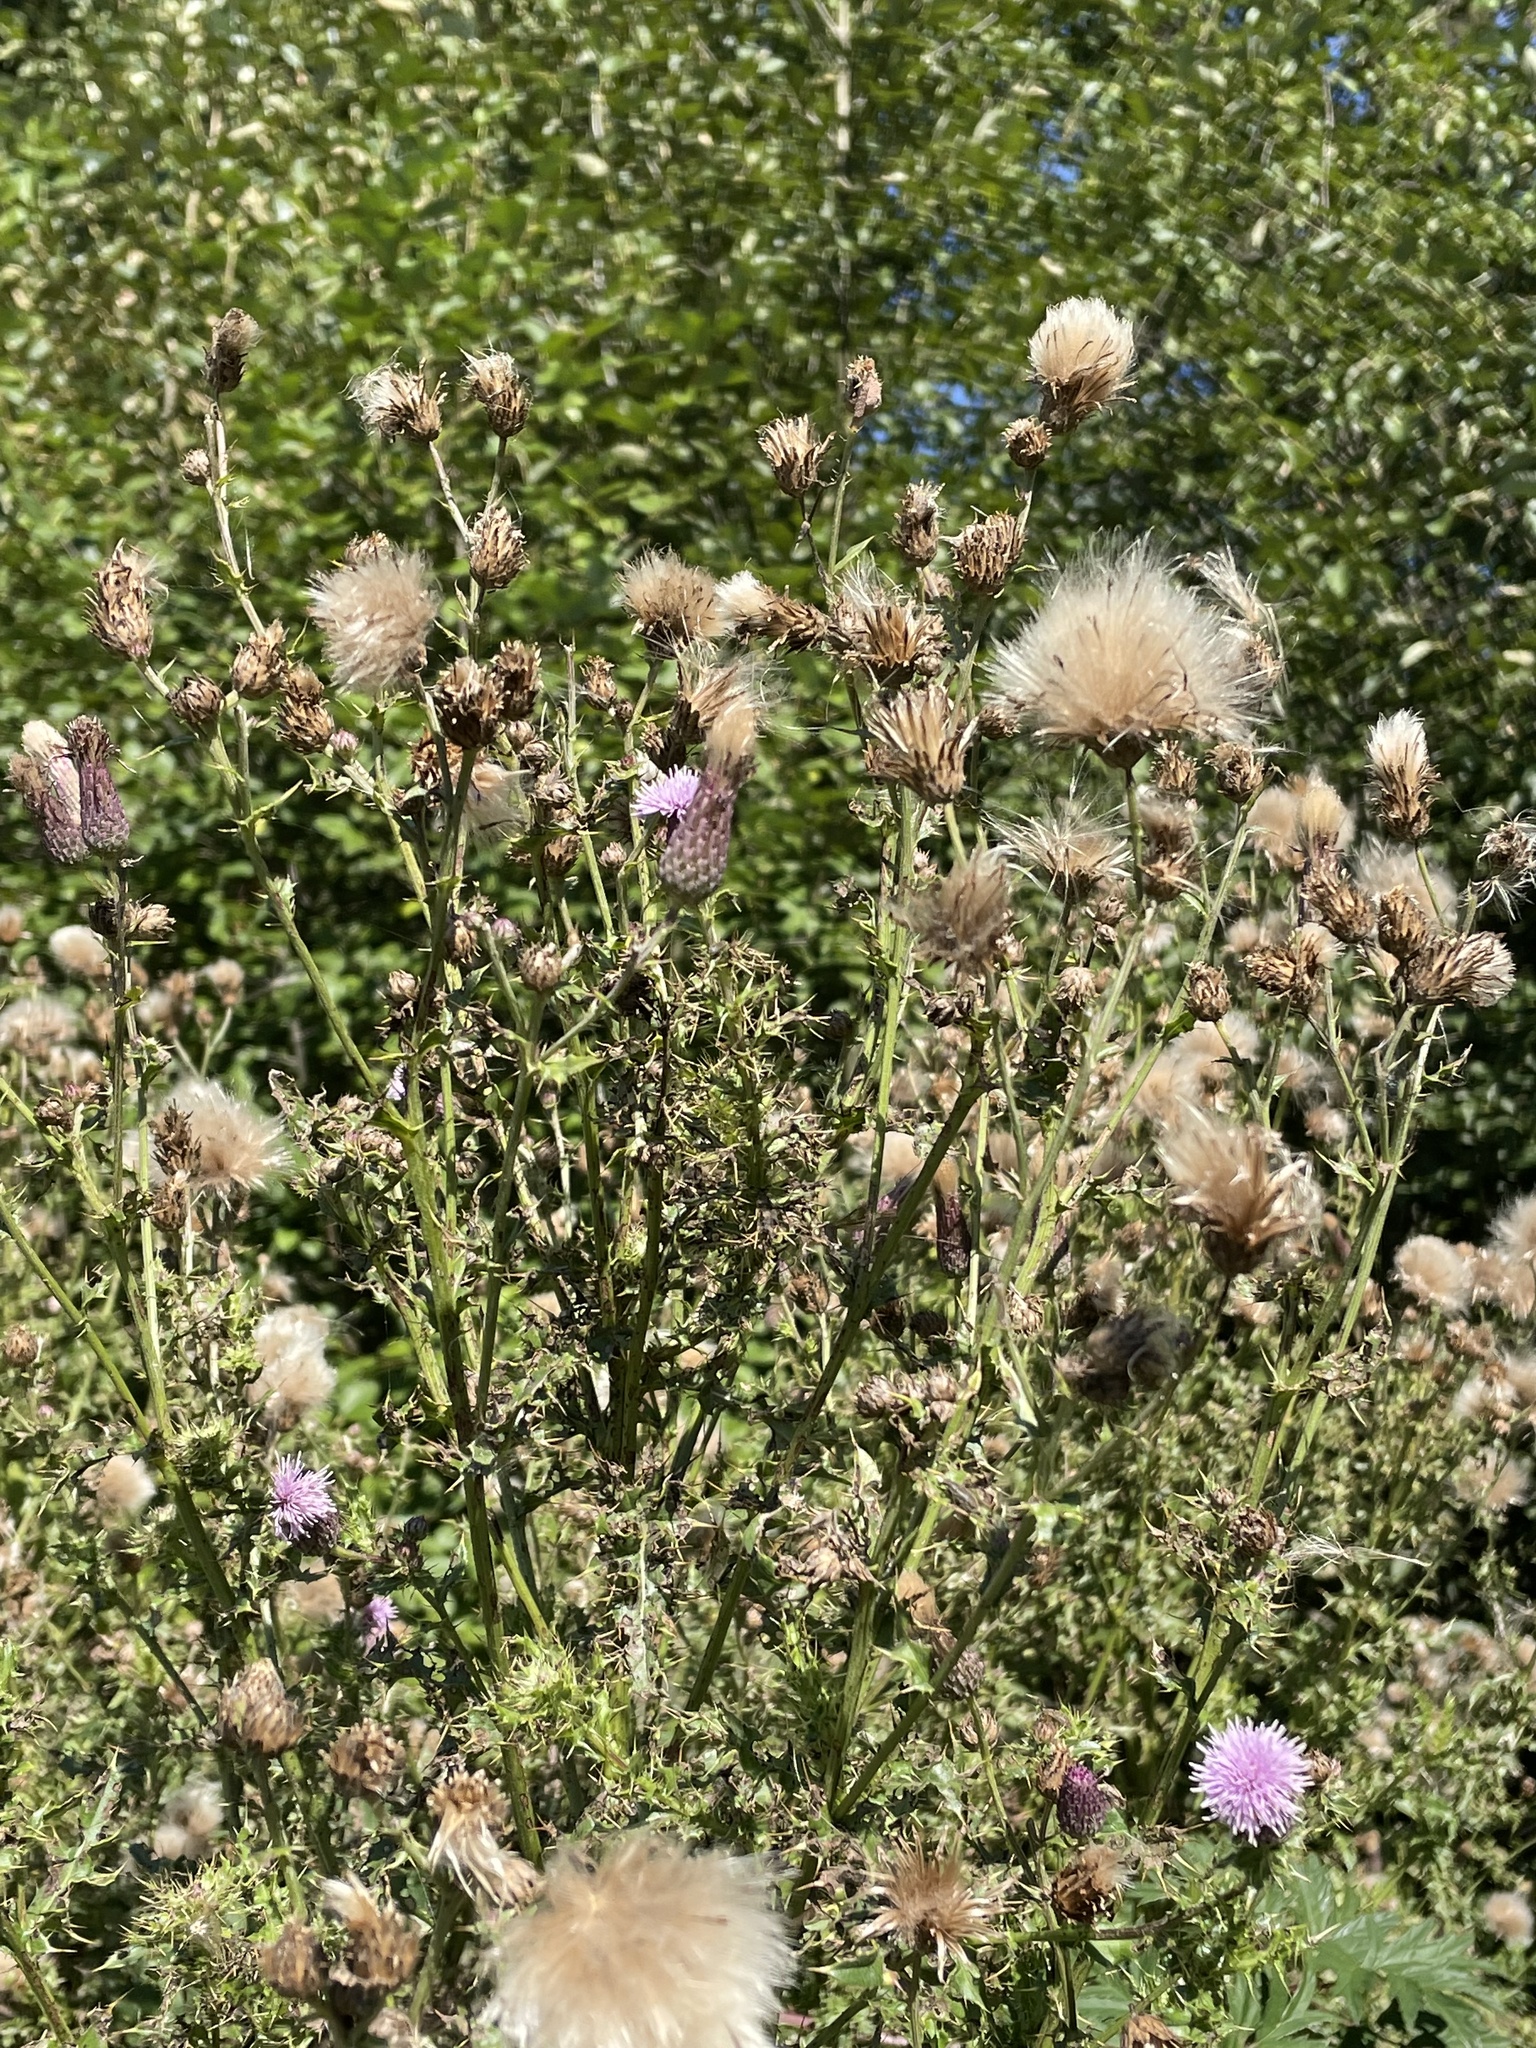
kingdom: Plantae
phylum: Tracheophyta
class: Magnoliopsida
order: Asterales
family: Asteraceae
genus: Cirsium
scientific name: Cirsium arvense
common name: Creeping thistle
